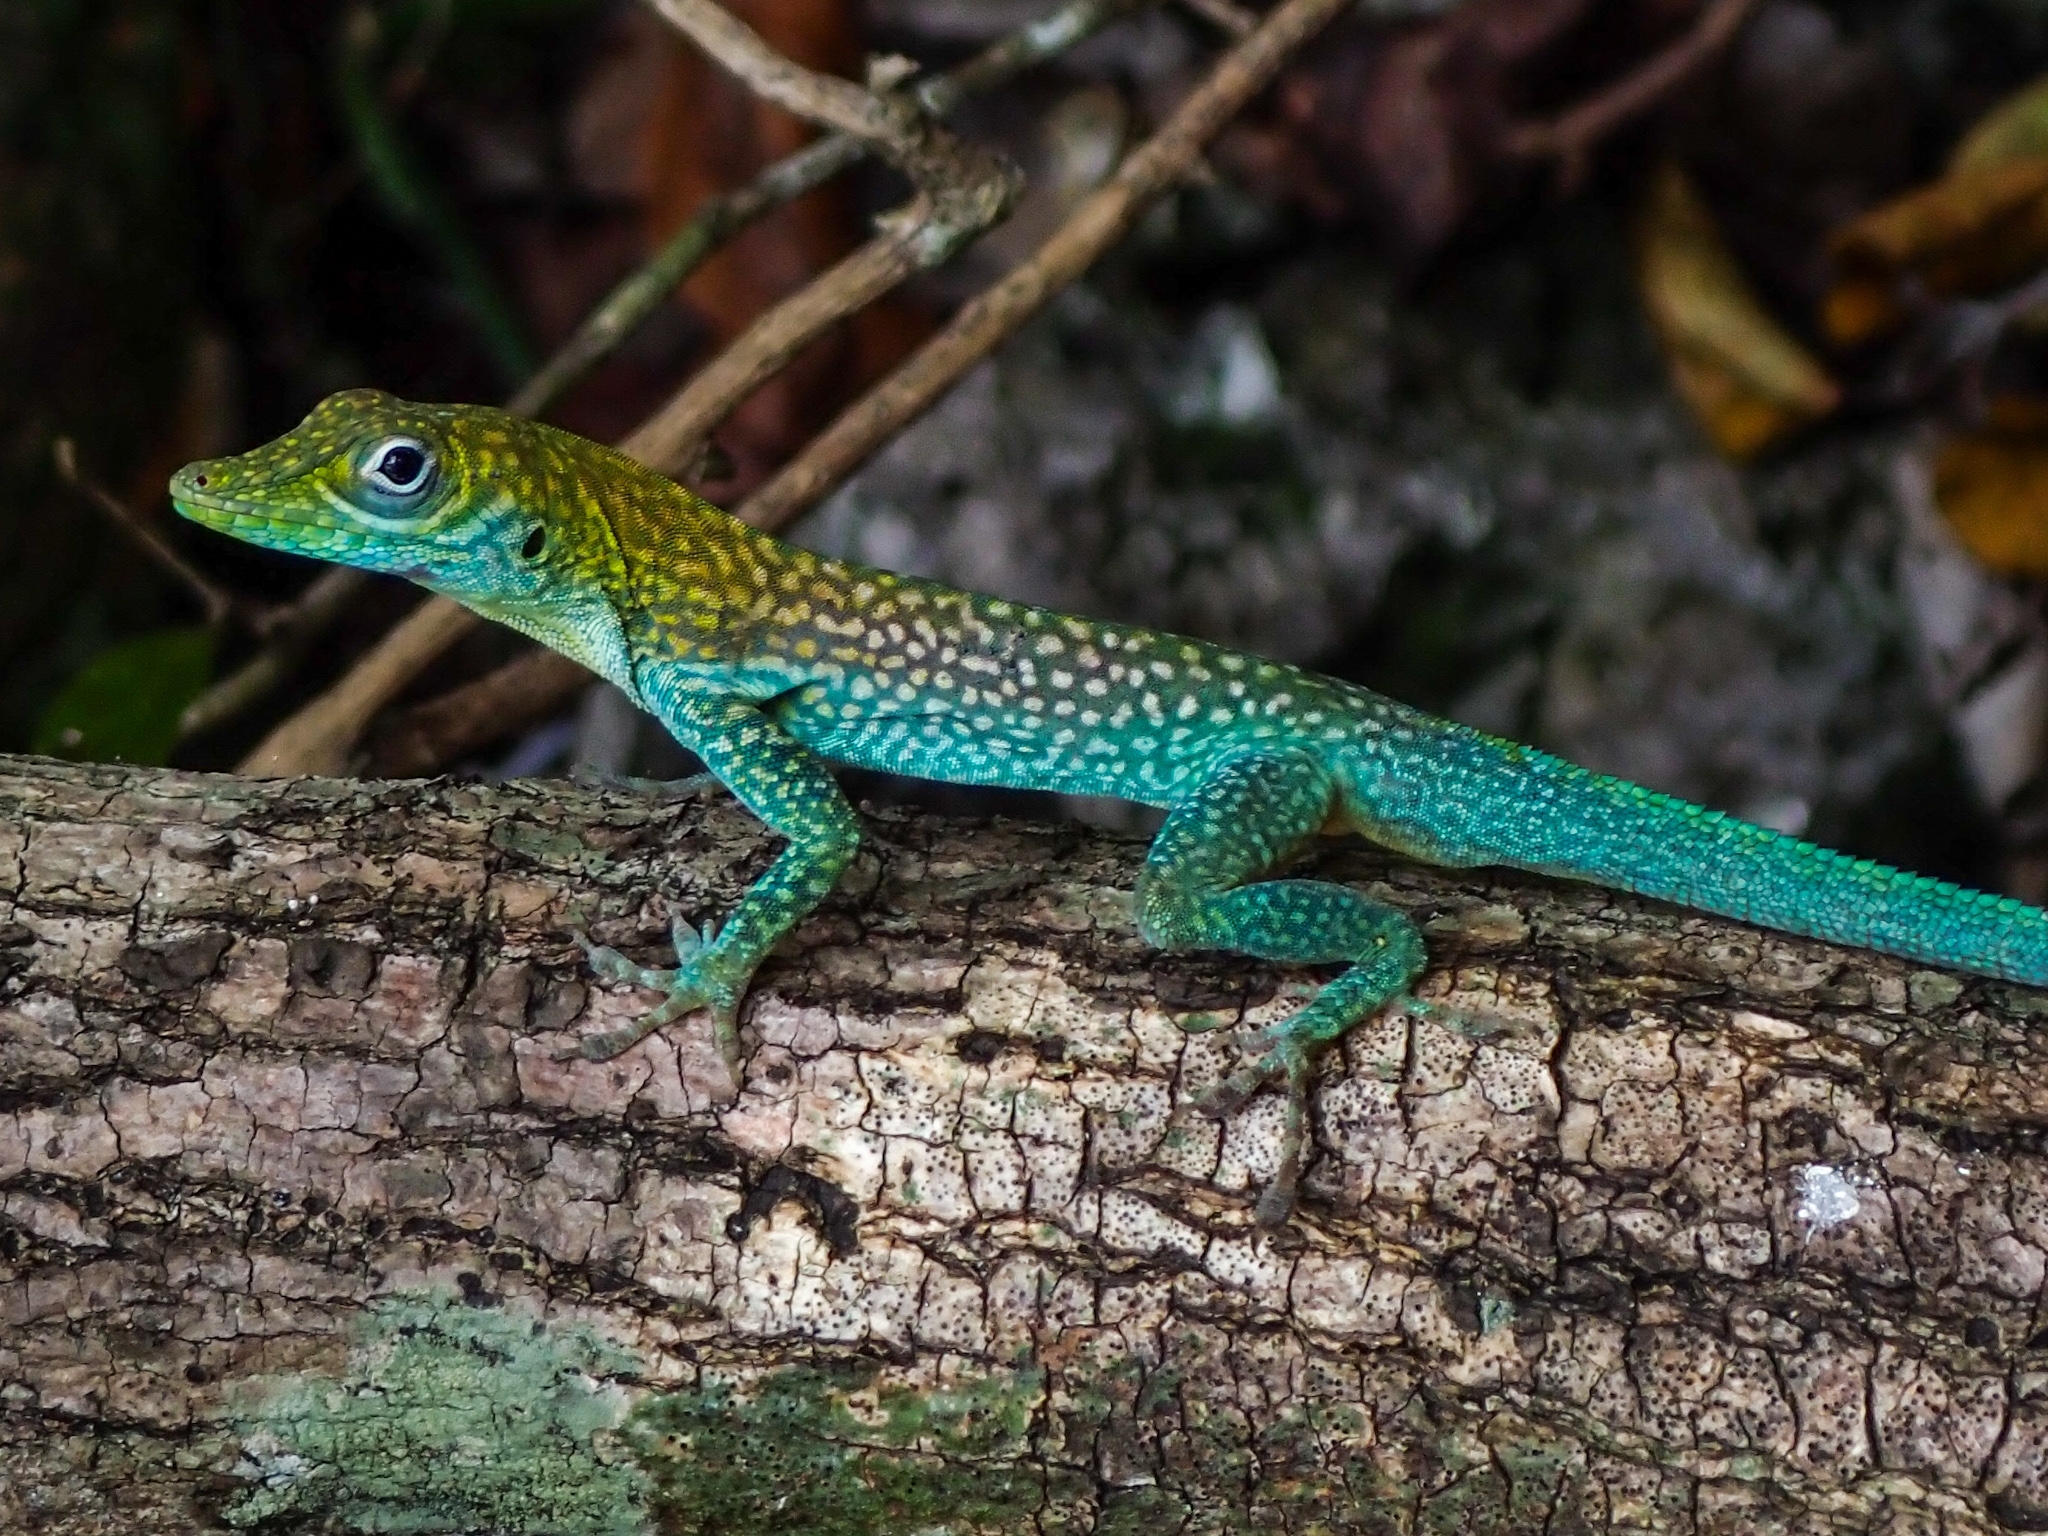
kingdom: Animalia
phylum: Chordata
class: Squamata
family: Dactyloidae
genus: Anolis
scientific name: Anolis conspersus
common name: Grand cayman anole
